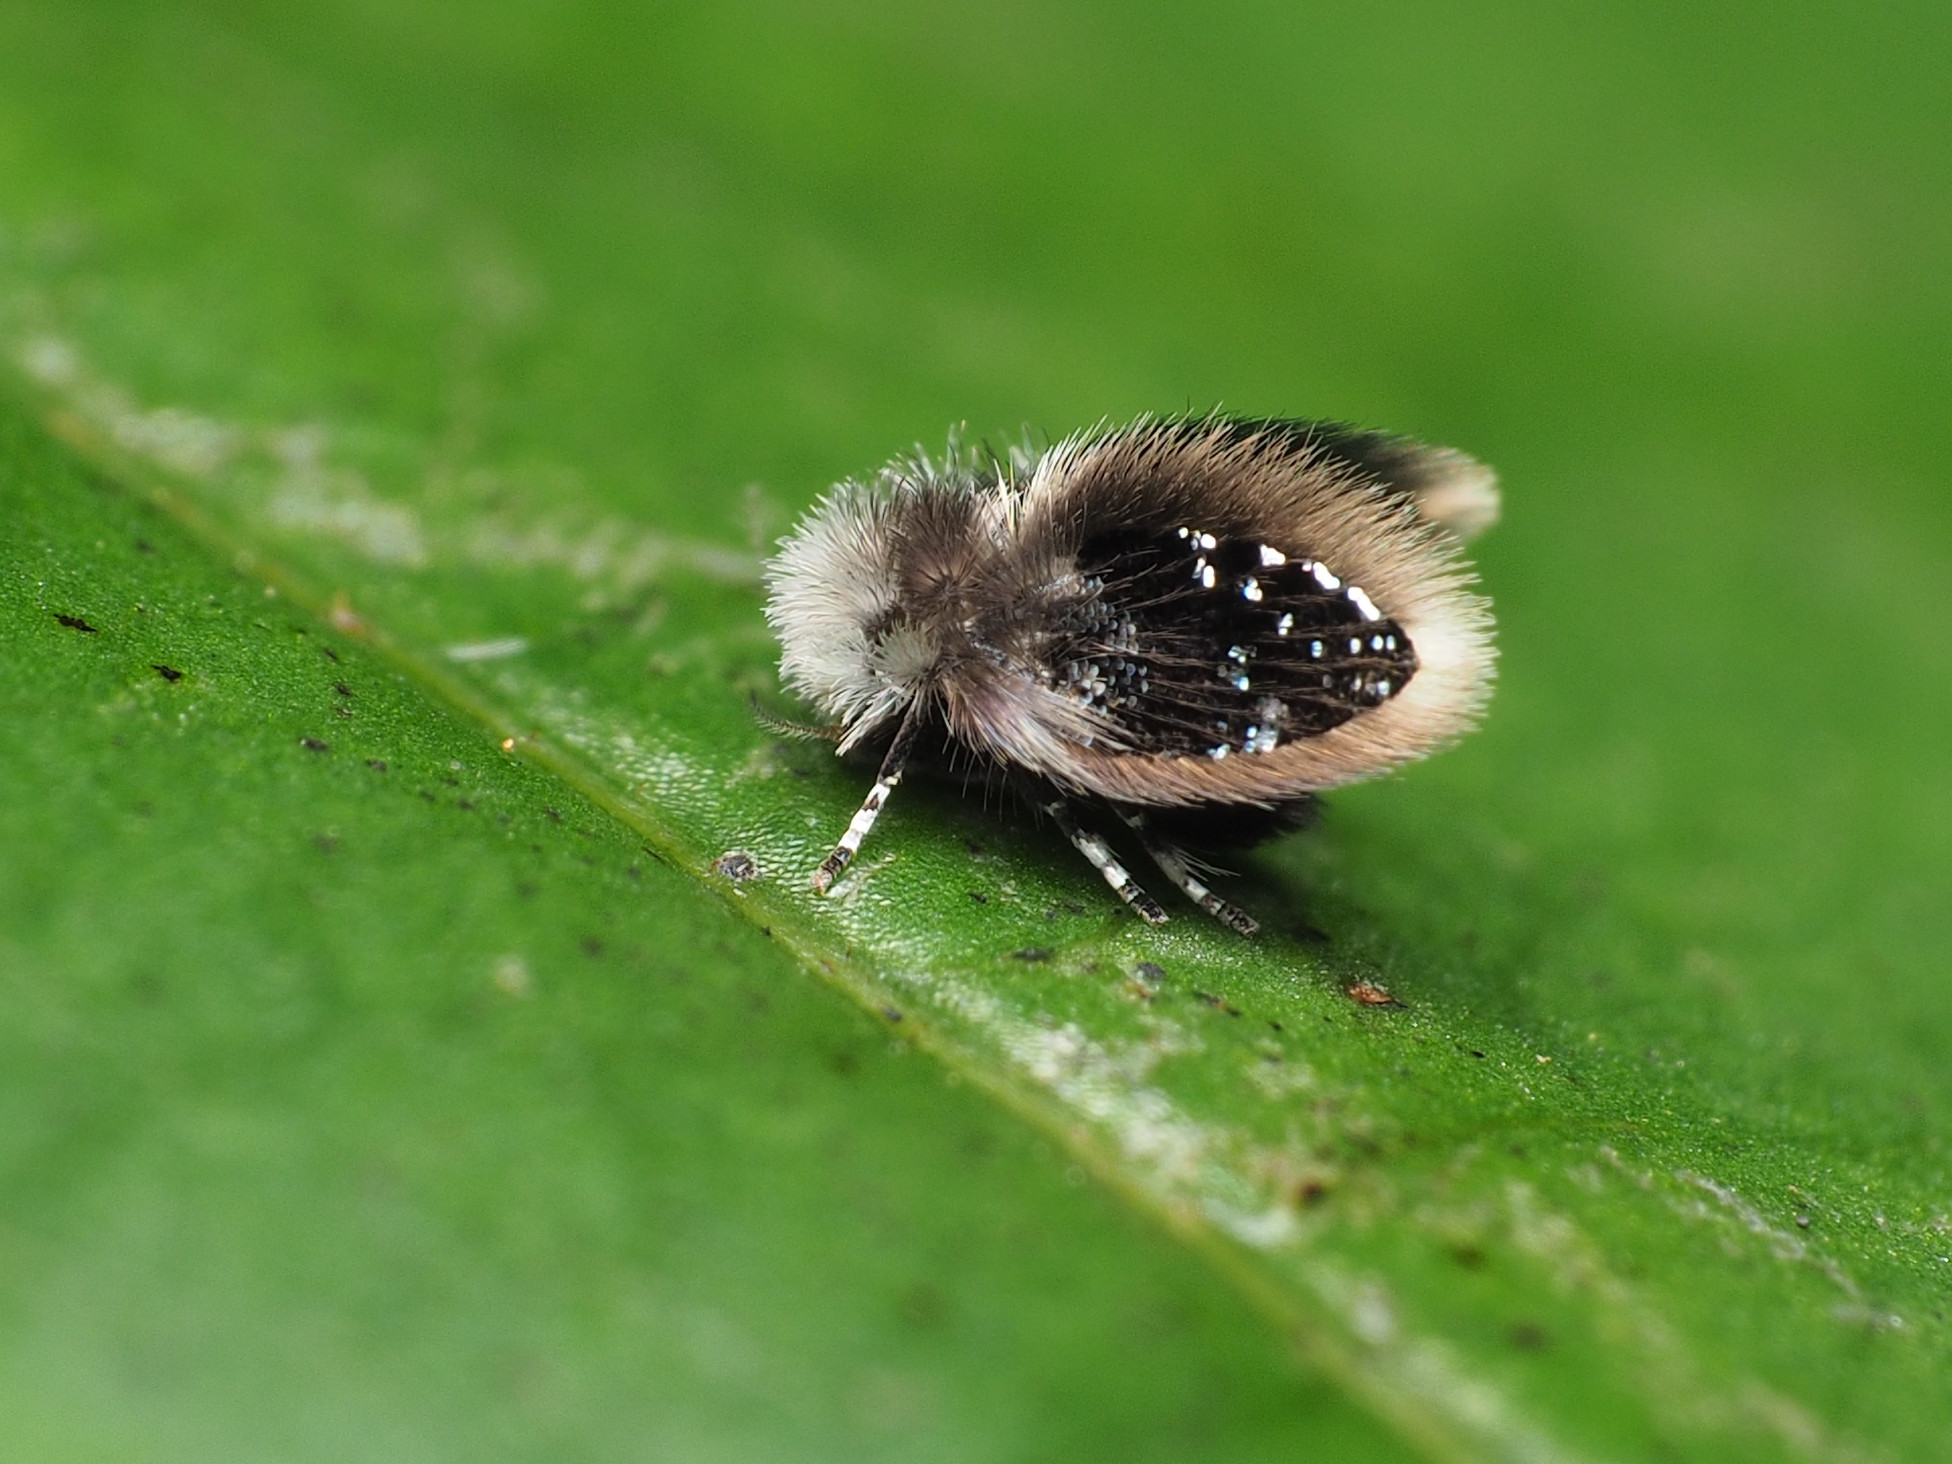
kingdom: Animalia
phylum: Arthropoda
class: Insecta
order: Diptera
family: Psychodidae
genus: Setomima
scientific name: Setomima
